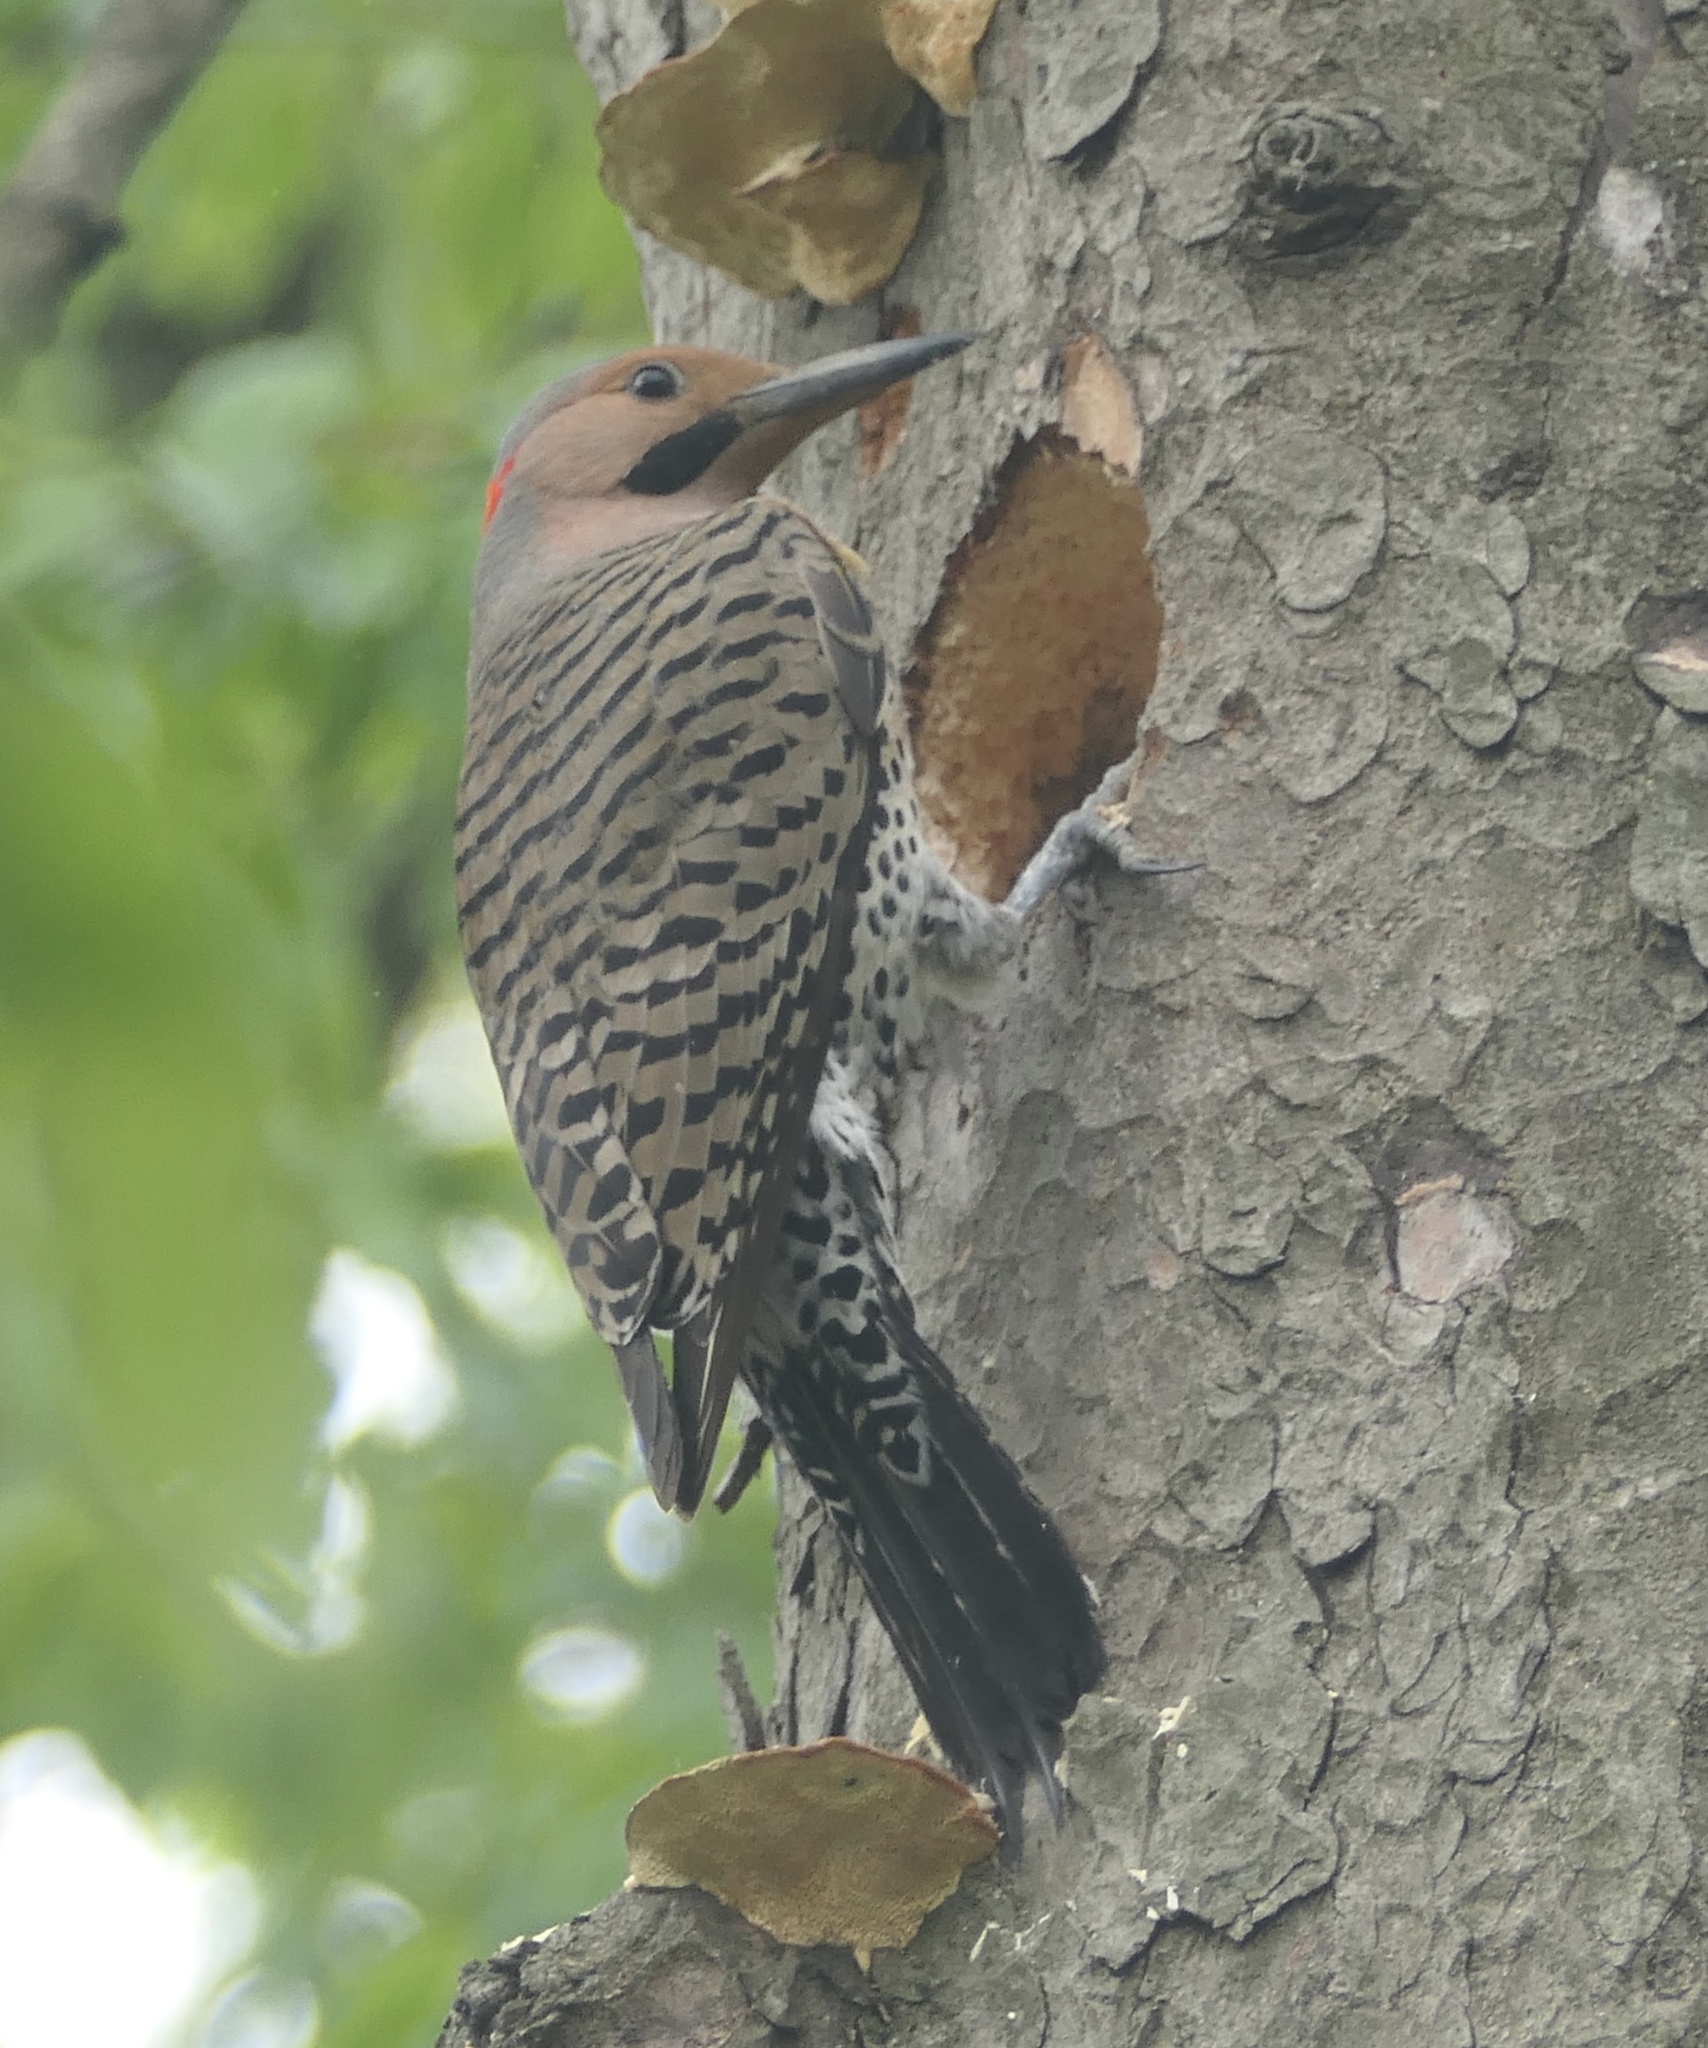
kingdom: Animalia
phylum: Chordata
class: Aves
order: Piciformes
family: Picidae
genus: Colaptes
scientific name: Colaptes auratus
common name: Northern flicker
